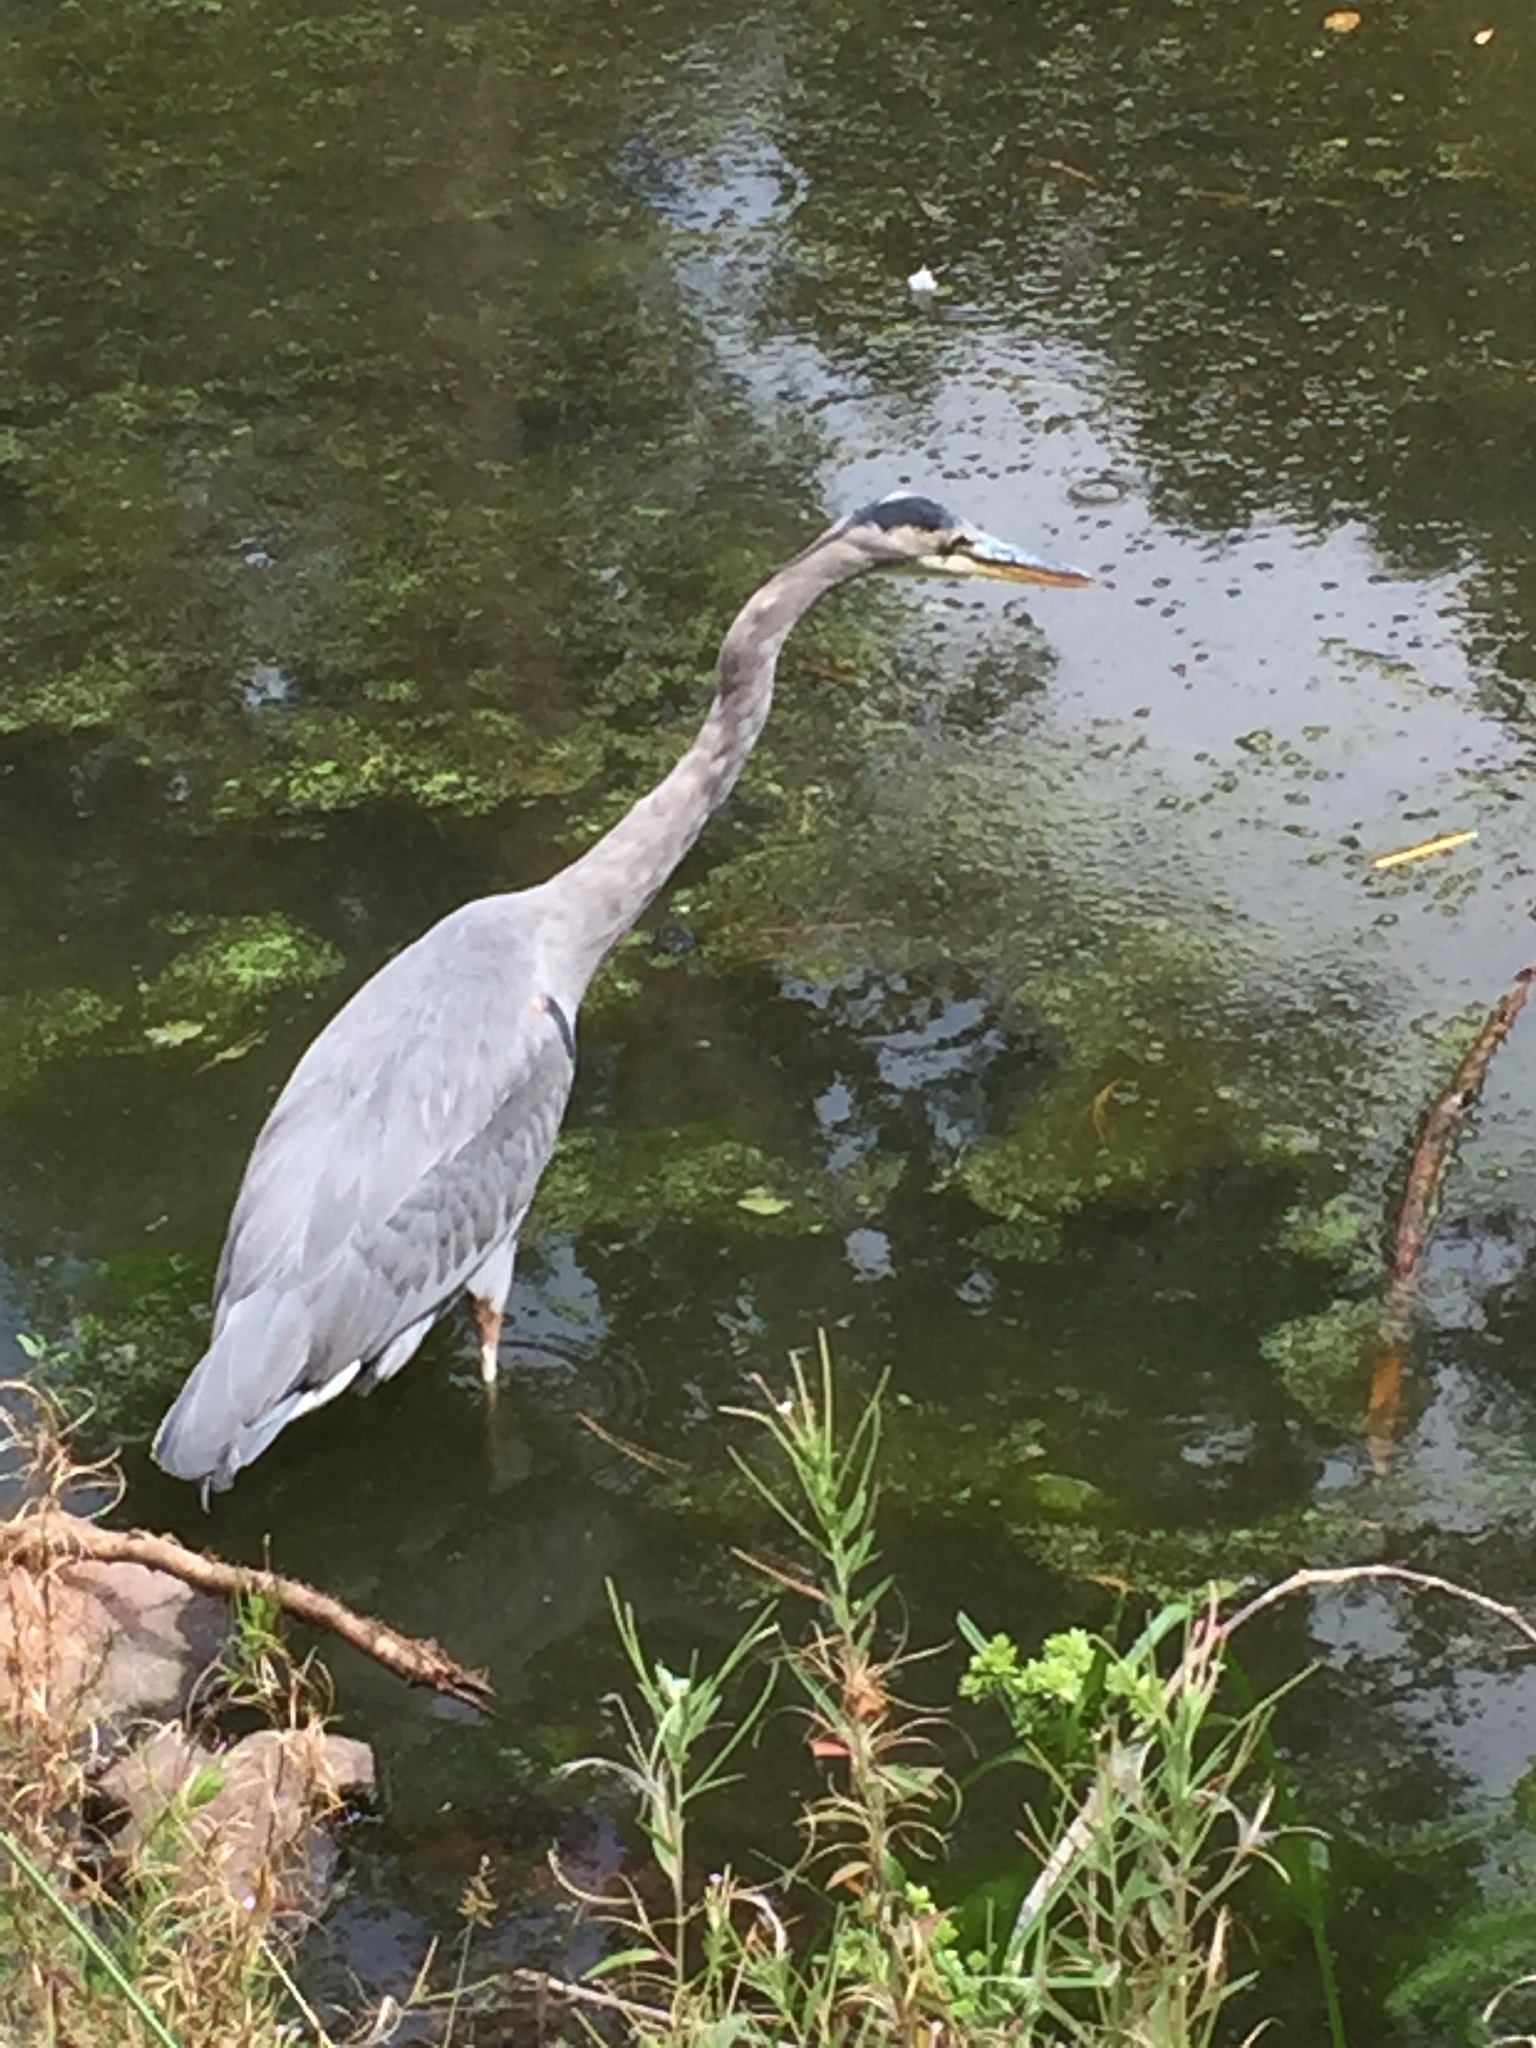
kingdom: Animalia
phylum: Chordata
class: Aves
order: Pelecaniformes
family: Ardeidae
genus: Ardea
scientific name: Ardea herodias
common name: Great blue heron
